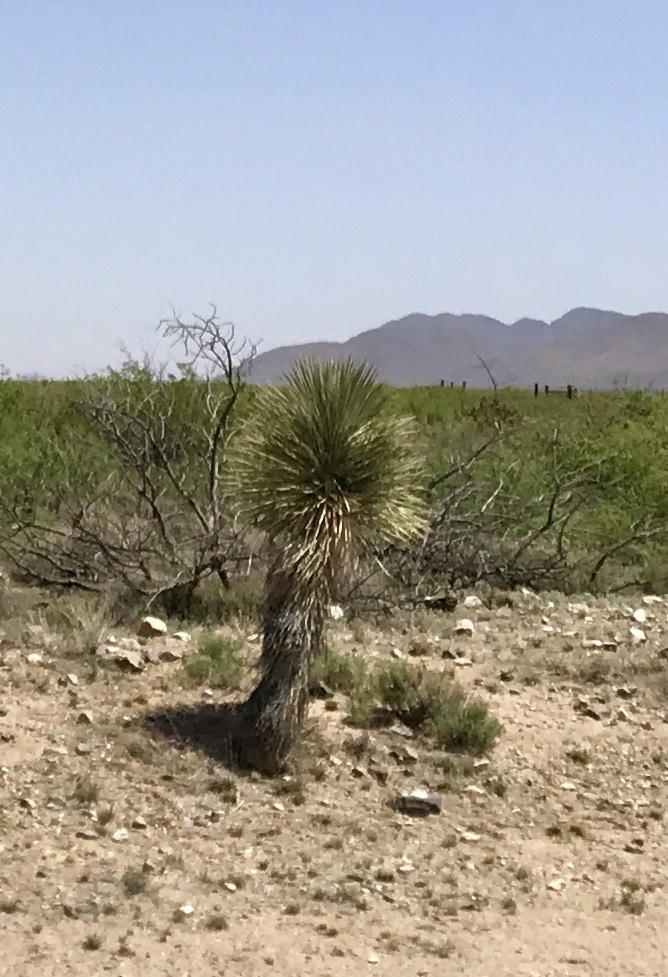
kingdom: Plantae
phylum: Tracheophyta
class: Liliopsida
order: Asparagales
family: Asparagaceae
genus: Yucca
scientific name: Yucca elata
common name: Palmella
